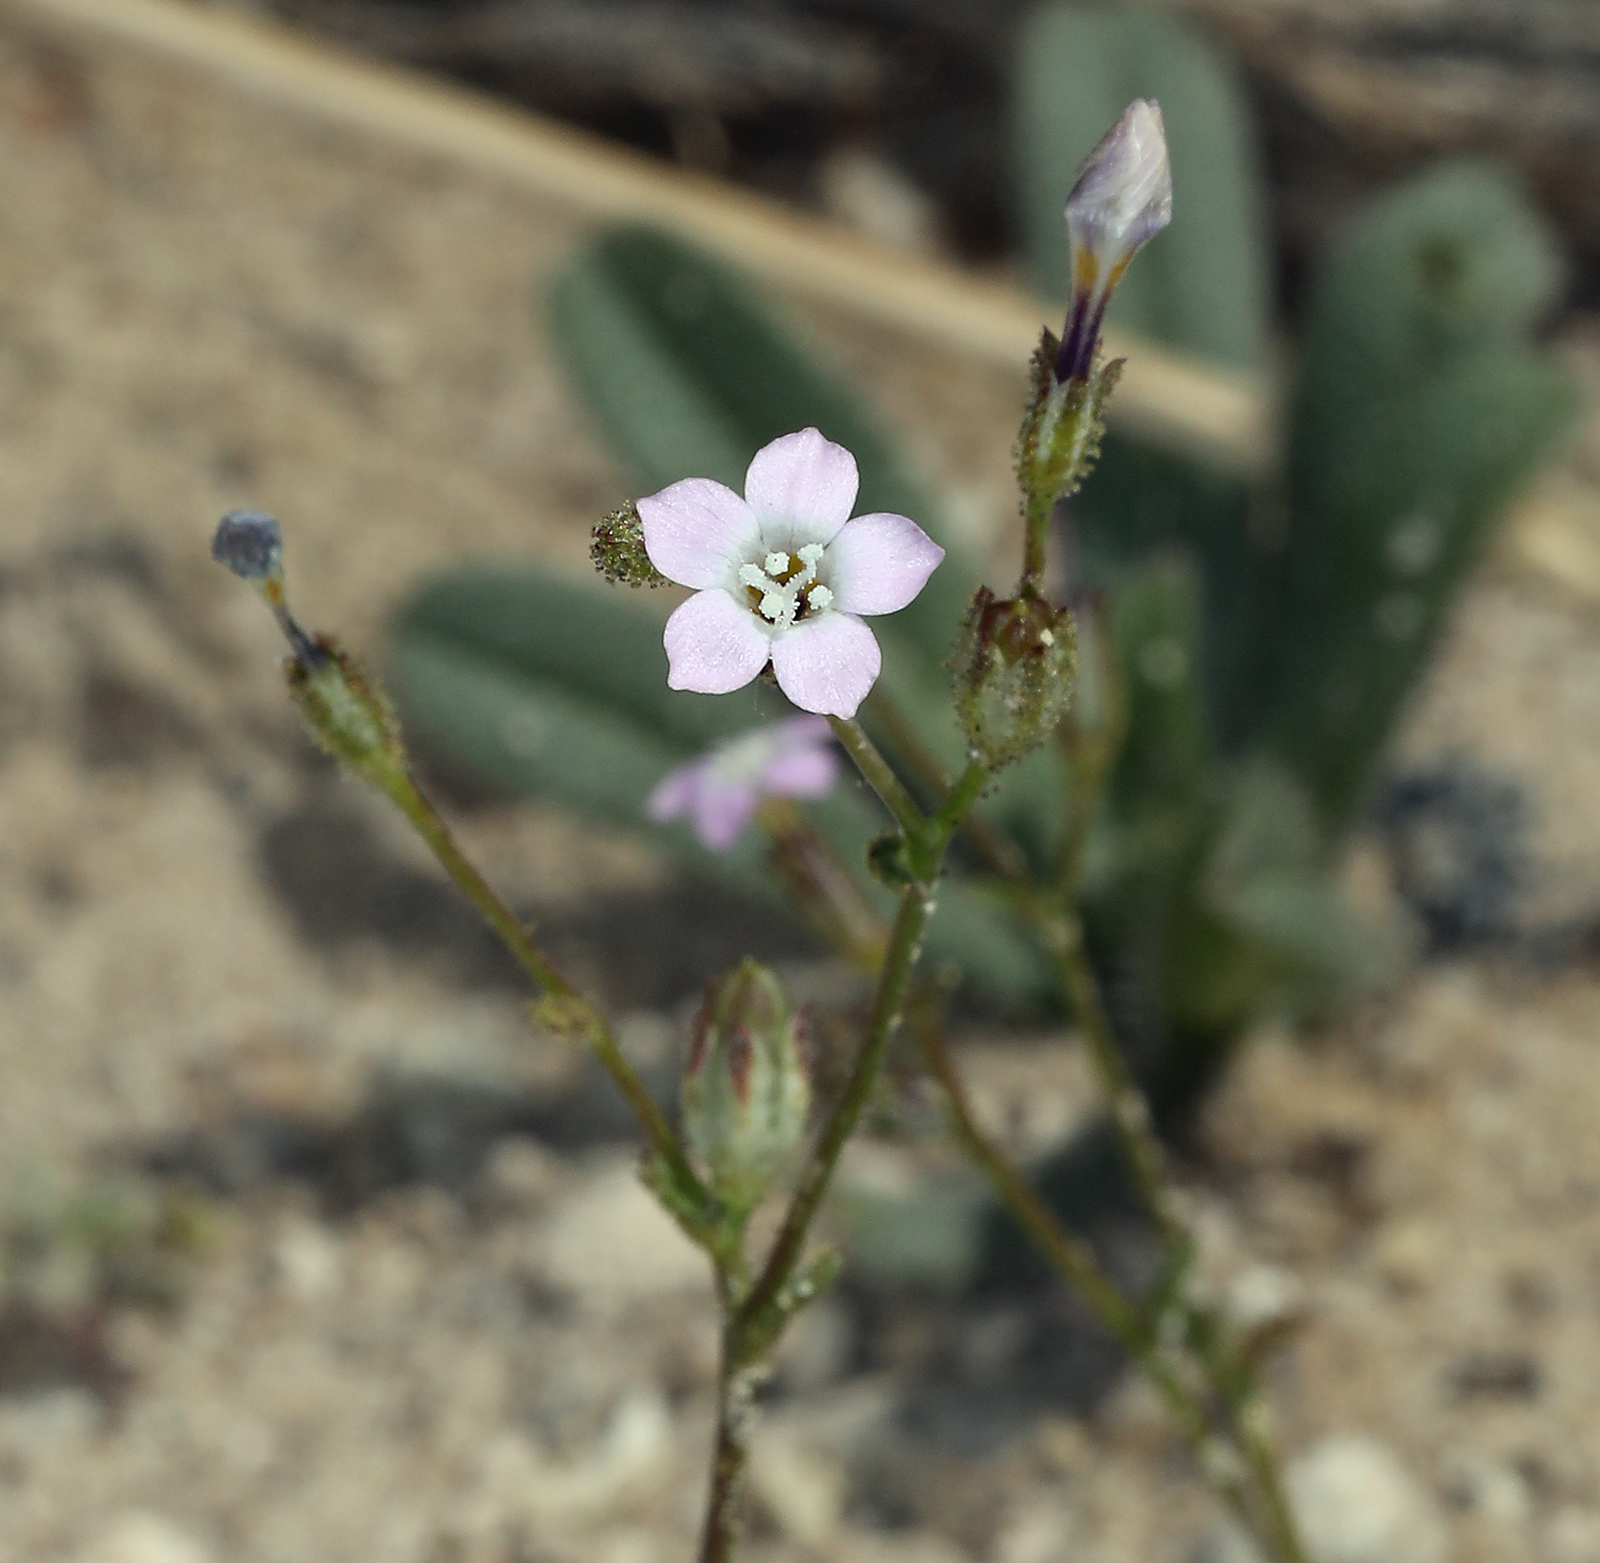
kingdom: Plantae
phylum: Tracheophyta
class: Magnoliopsida
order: Ericales
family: Polemoniaceae
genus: Gilia
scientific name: Gilia sinuata
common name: Rosy gilia
